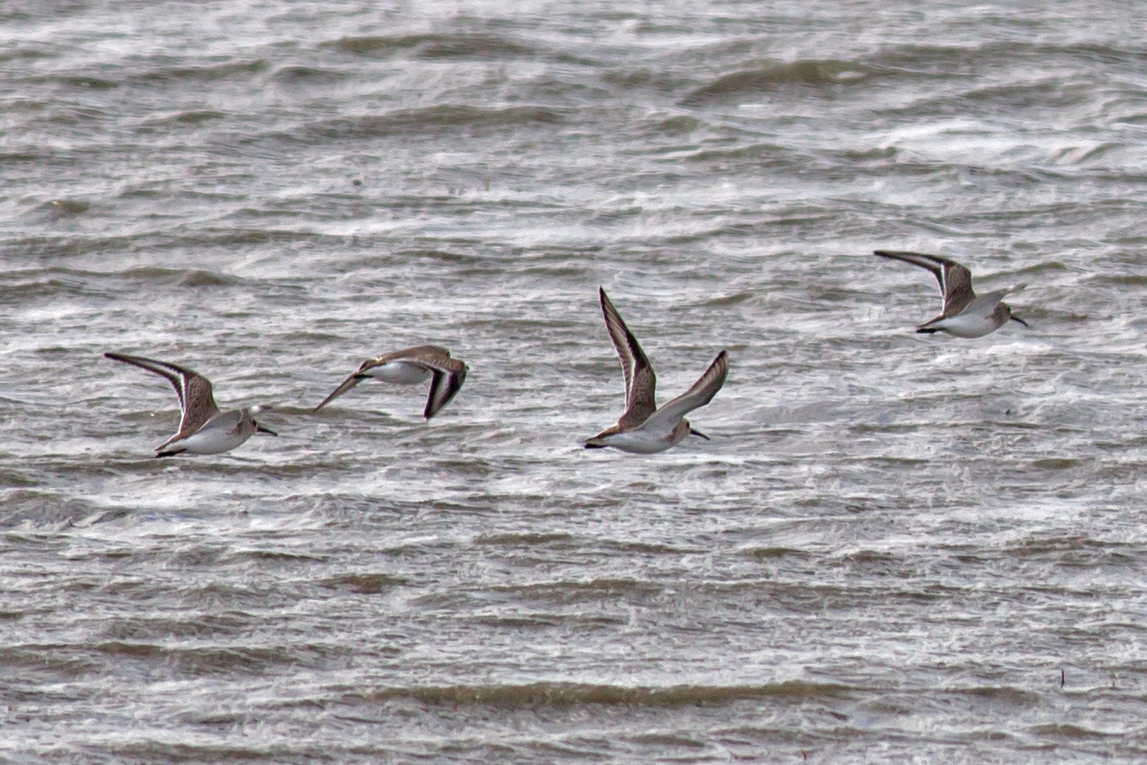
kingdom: Animalia
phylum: Chordata
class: Aves
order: Charadriiformes
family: Scolopacidae
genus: Calidris
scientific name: Calidris alpina
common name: Dunlin
